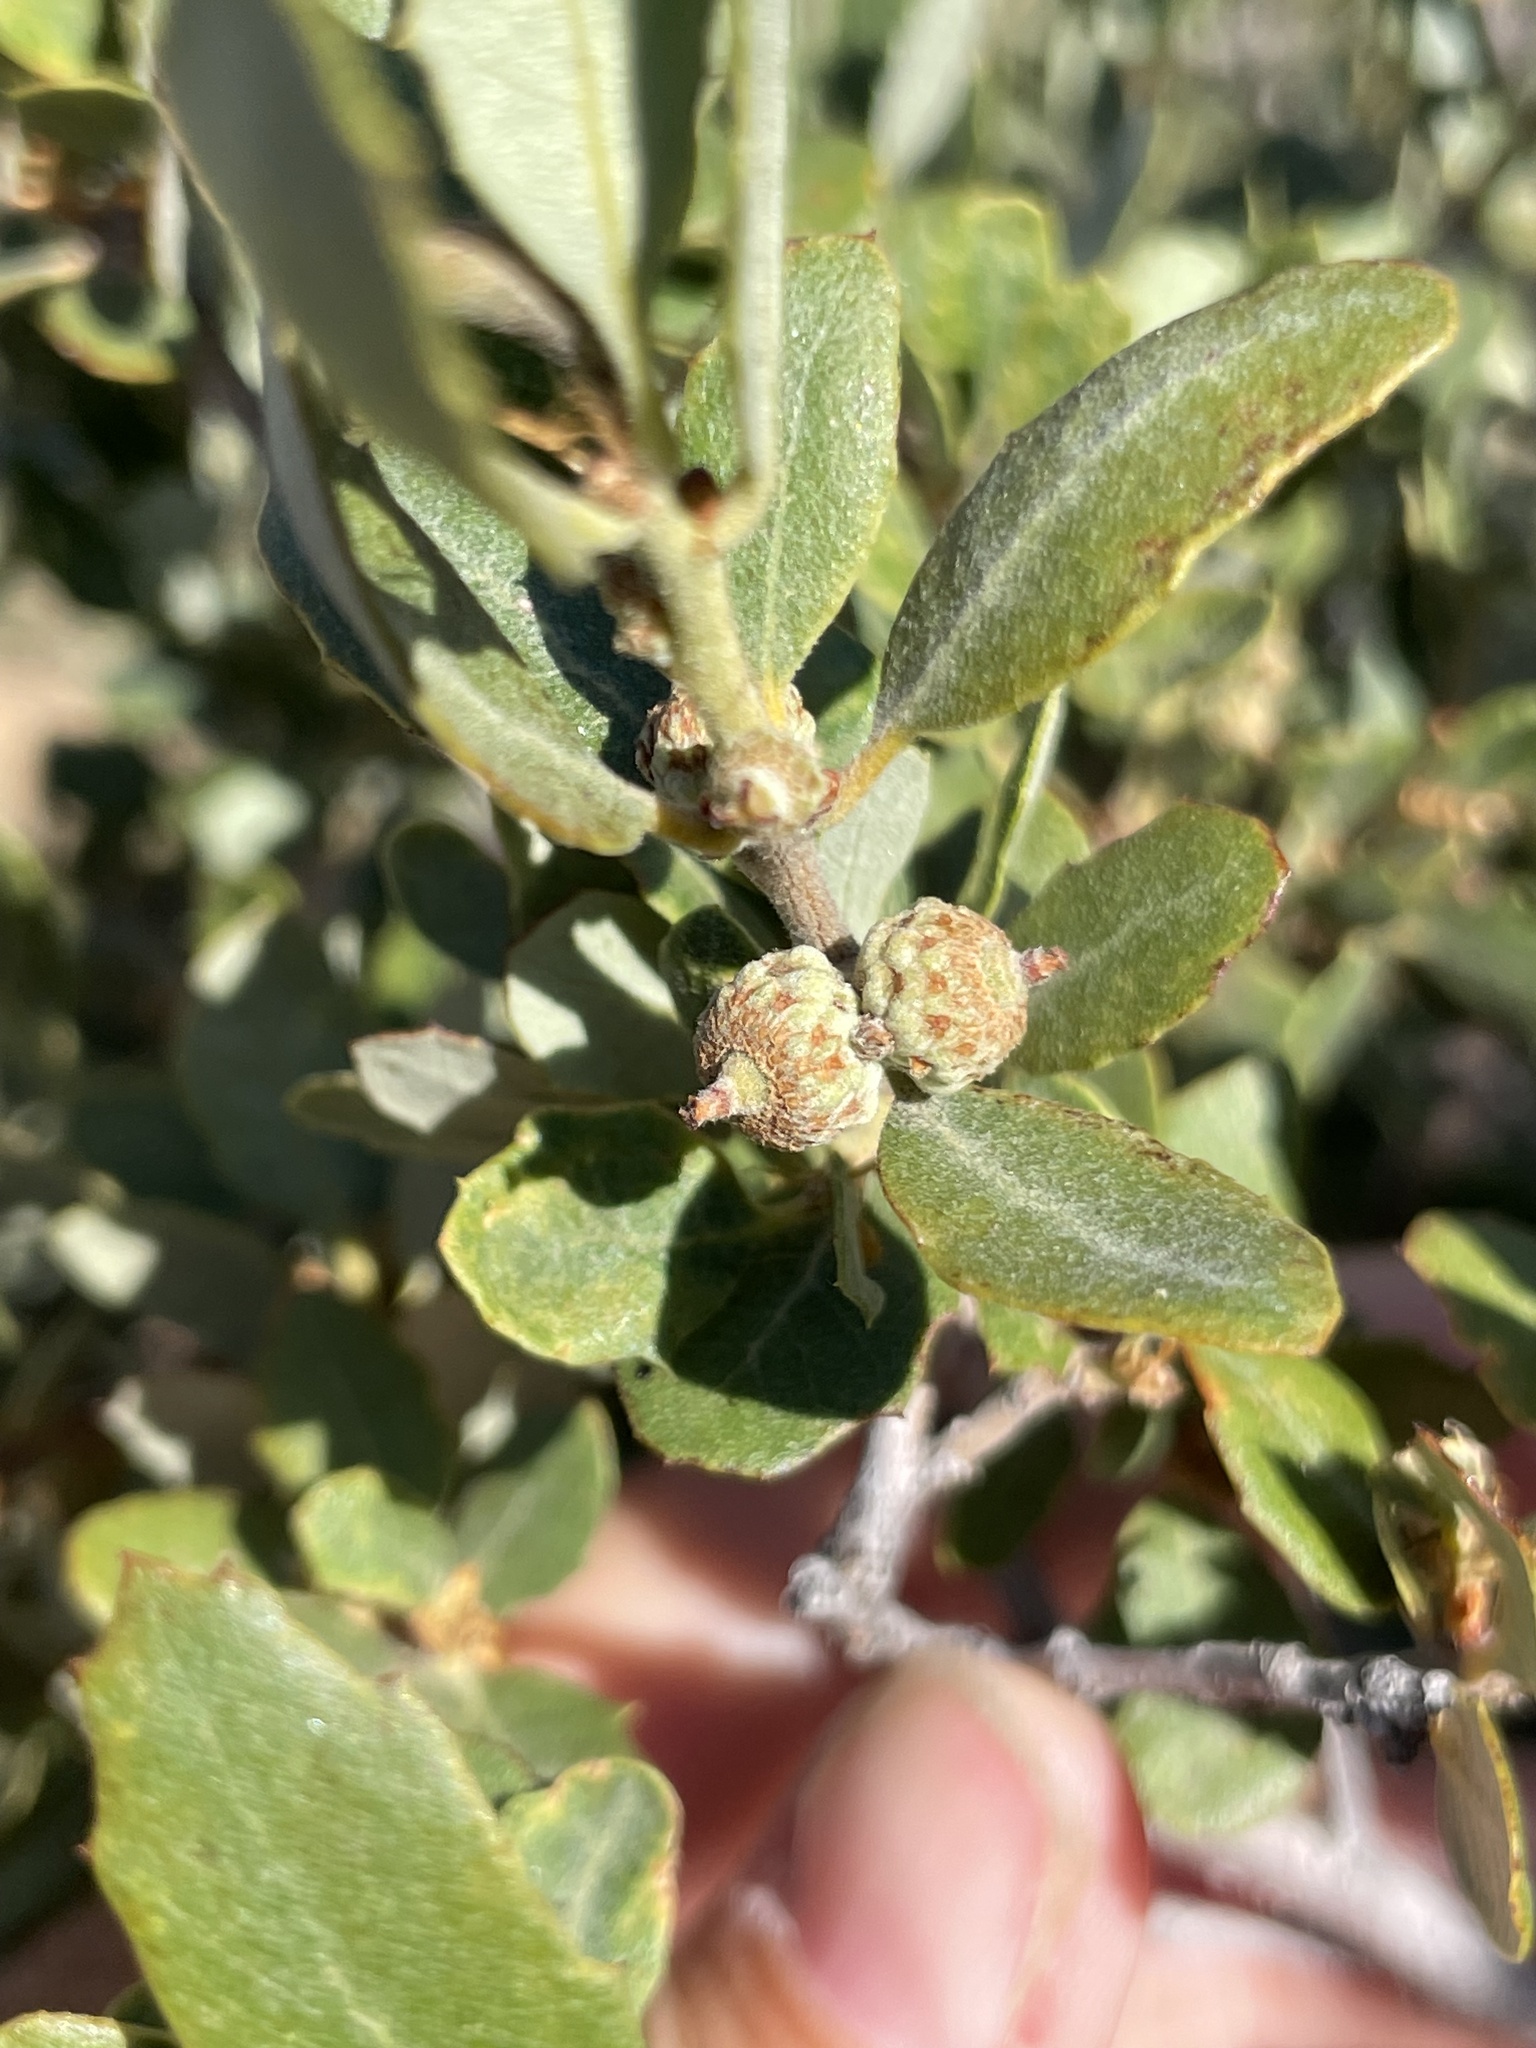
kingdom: Plantae
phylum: Tracheophyta
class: Magnoliopsida
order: Fagales
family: Fagaceae
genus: Quercus
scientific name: Quercus cornelius-mulleri
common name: Muller oak
